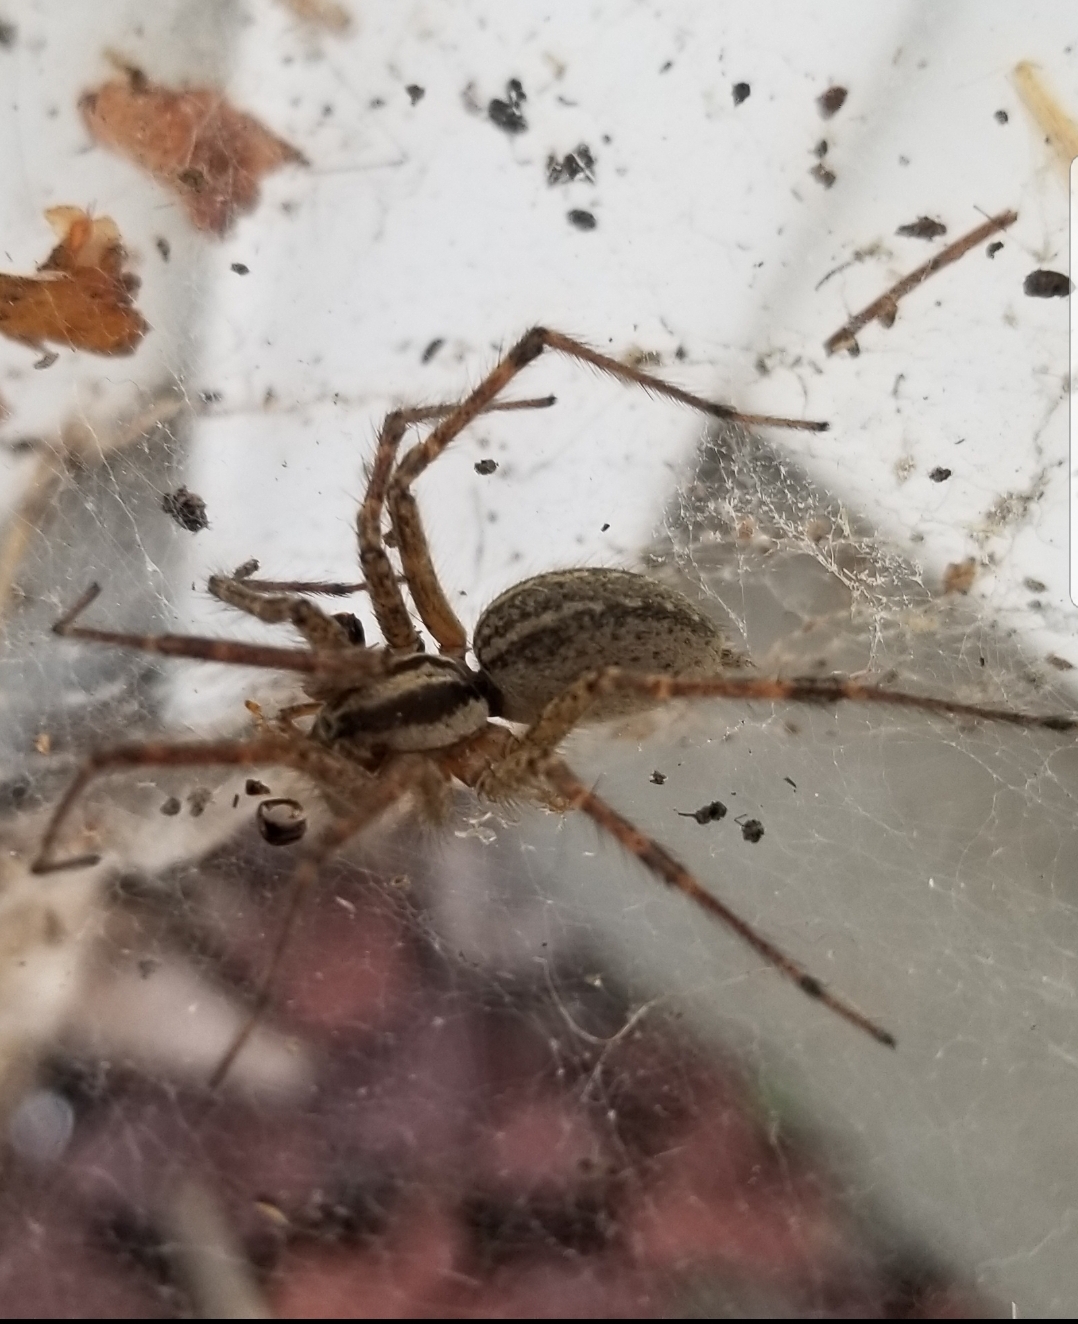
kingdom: Animalia
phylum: Arthropoda
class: Arachnida
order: Araneae
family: Agelenidae
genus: Agelenopsis
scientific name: Agelenopsis
